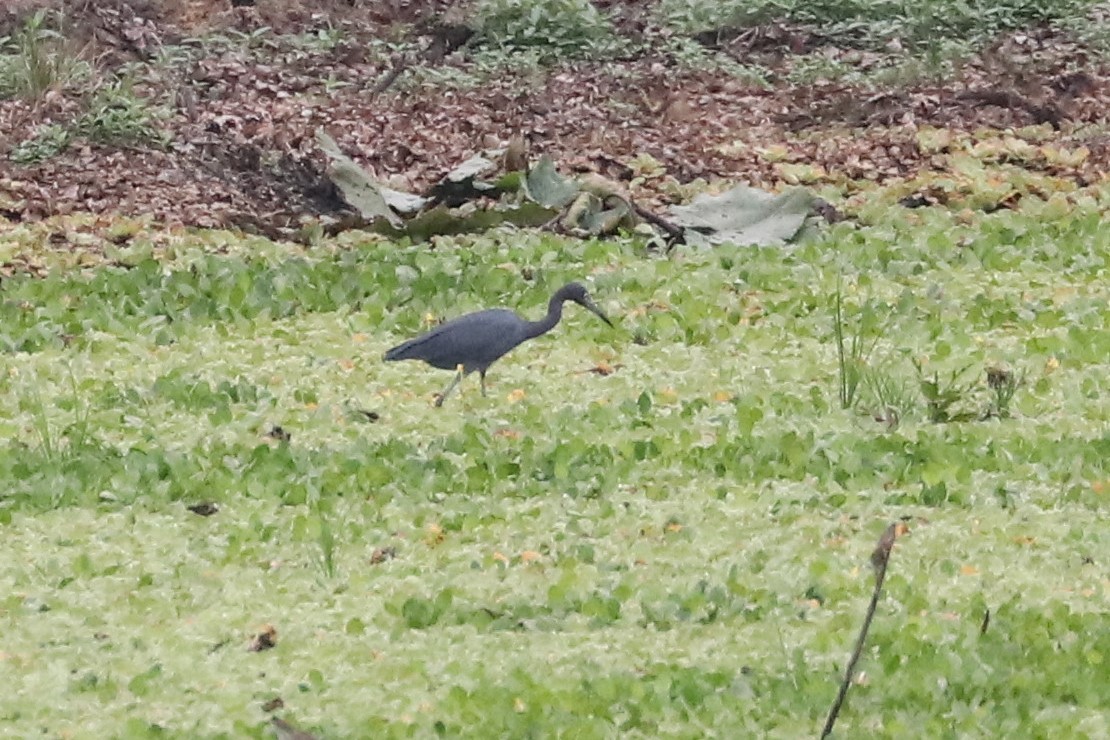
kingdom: Animalia
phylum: Chordata
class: Aves
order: Pelecaniformes
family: Ardeidae
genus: Egretta
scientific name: Egretta caerulea
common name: Little blue heron
